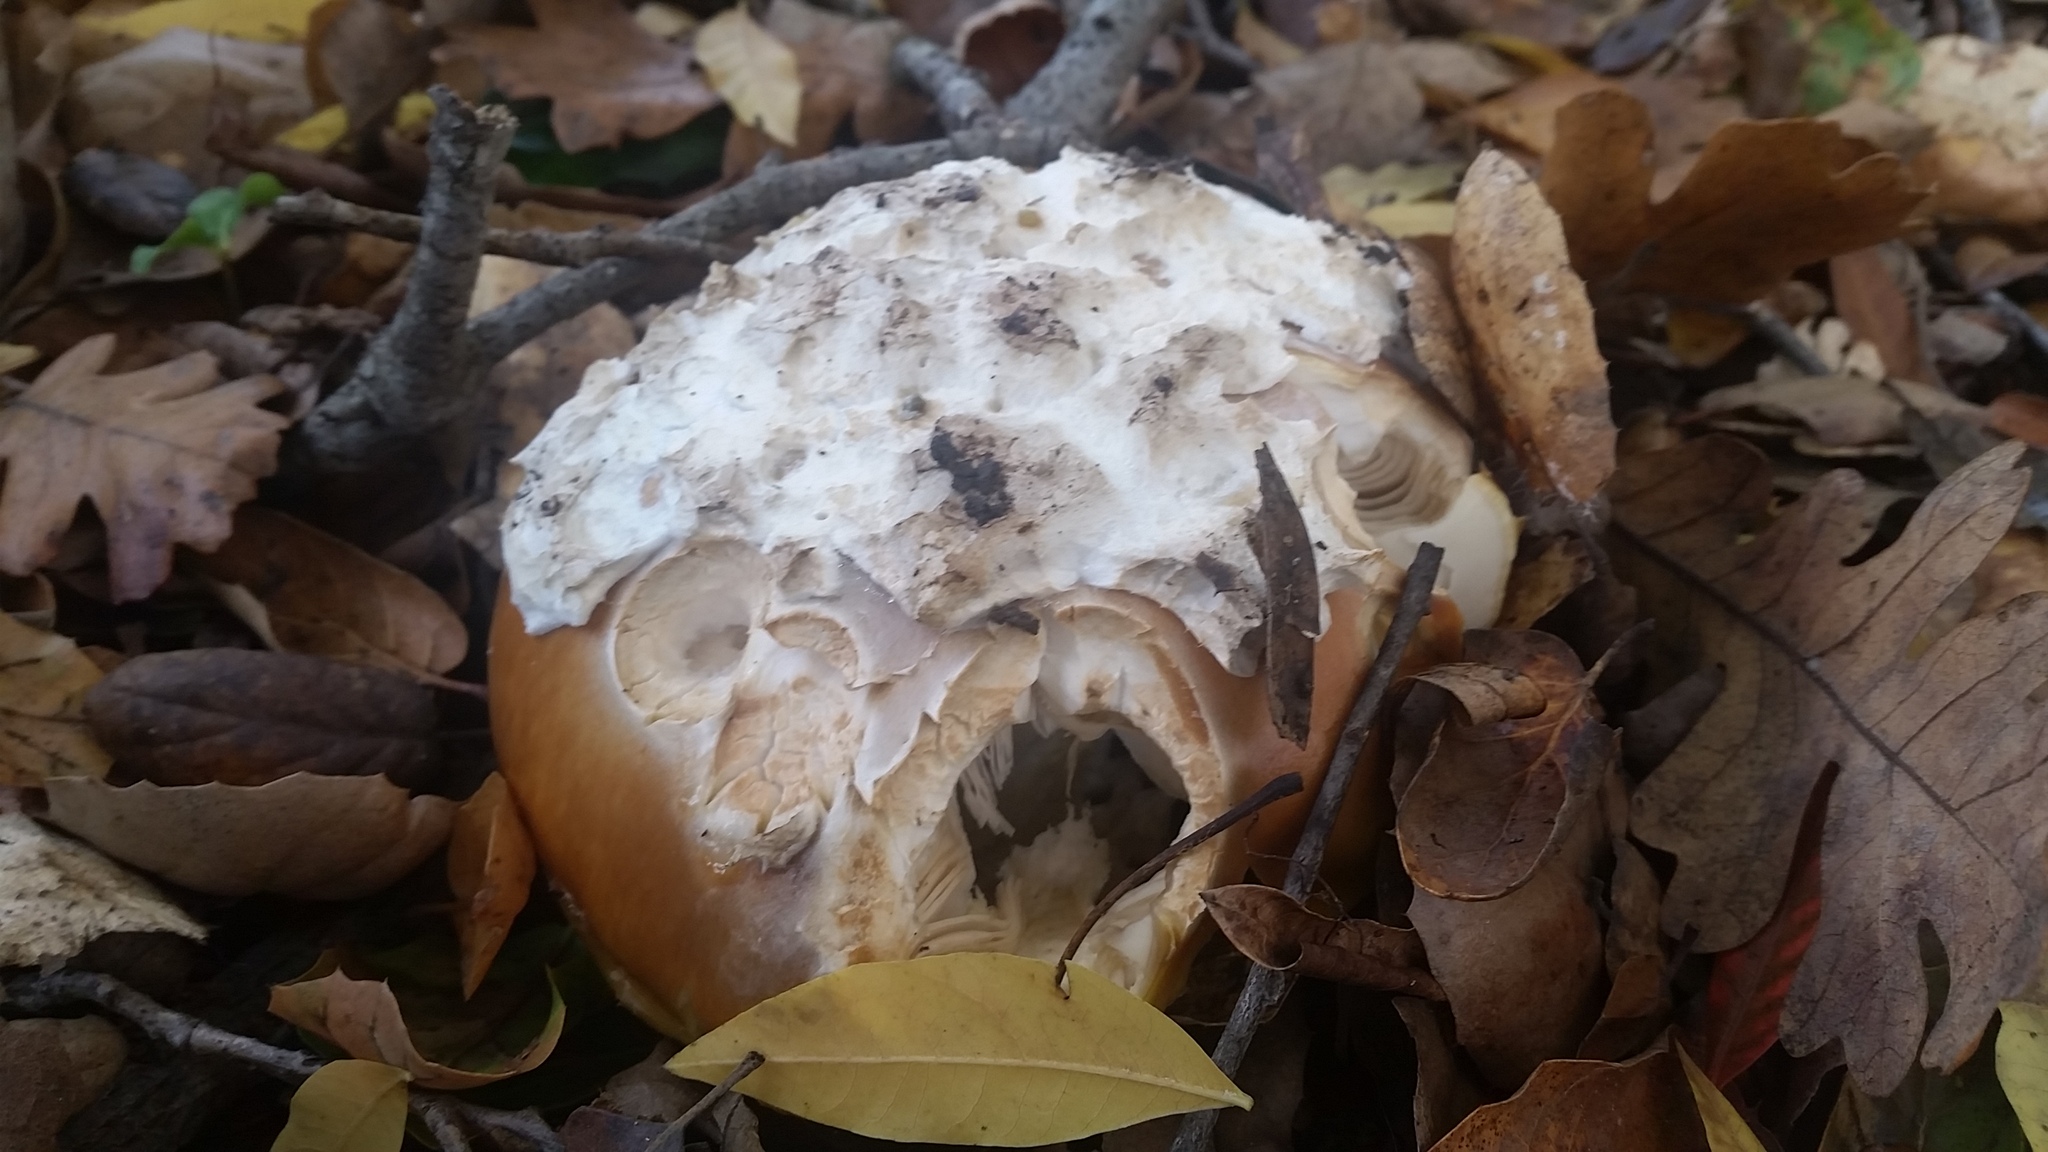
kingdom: Fungi
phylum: Basidiomycota
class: Agaricomycetes
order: Agaricales
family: Amanitaceae
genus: Amanita
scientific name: Amanita calyptroderma
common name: Coccora
